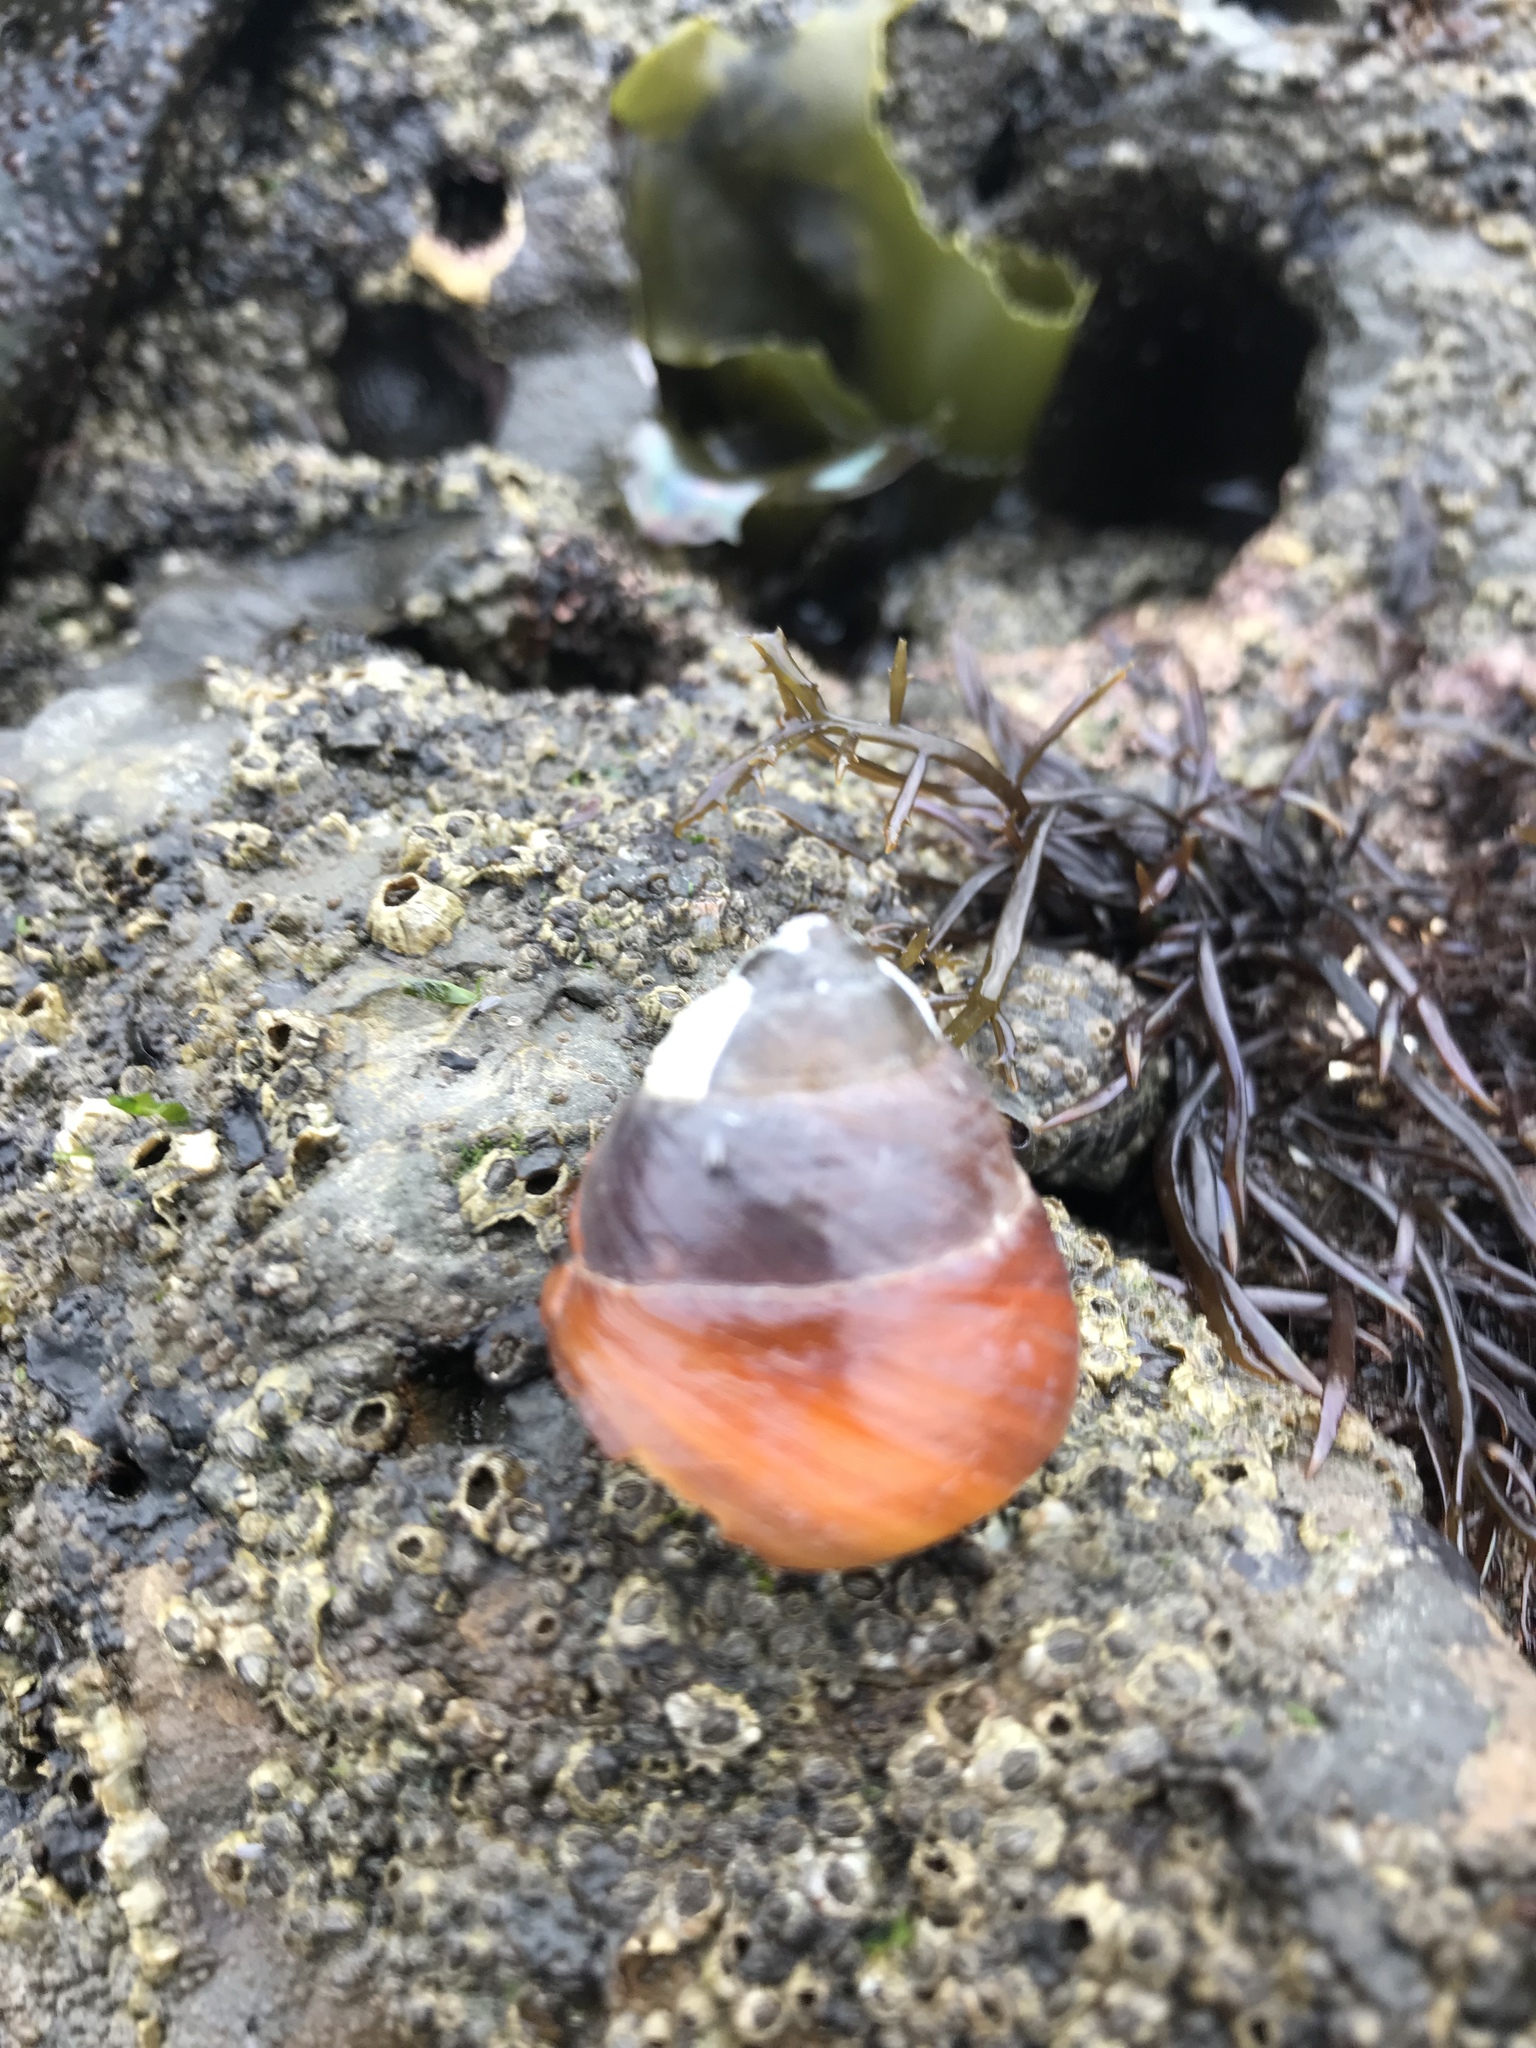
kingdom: Animalia
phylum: Mollusca
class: Gastropoda
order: Trochida
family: Tegulidae
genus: Tegula
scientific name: Tegula brunnea
